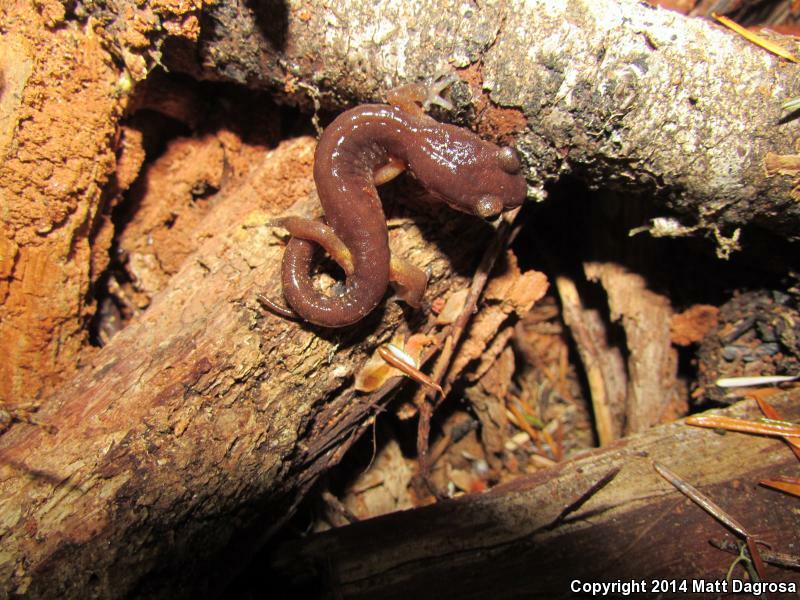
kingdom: Animalia
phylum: Chordata
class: Amphibia
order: Caudata
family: Plethodontidae
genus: Ensatina
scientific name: Ensatina eschscholtzii
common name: Ensatina
